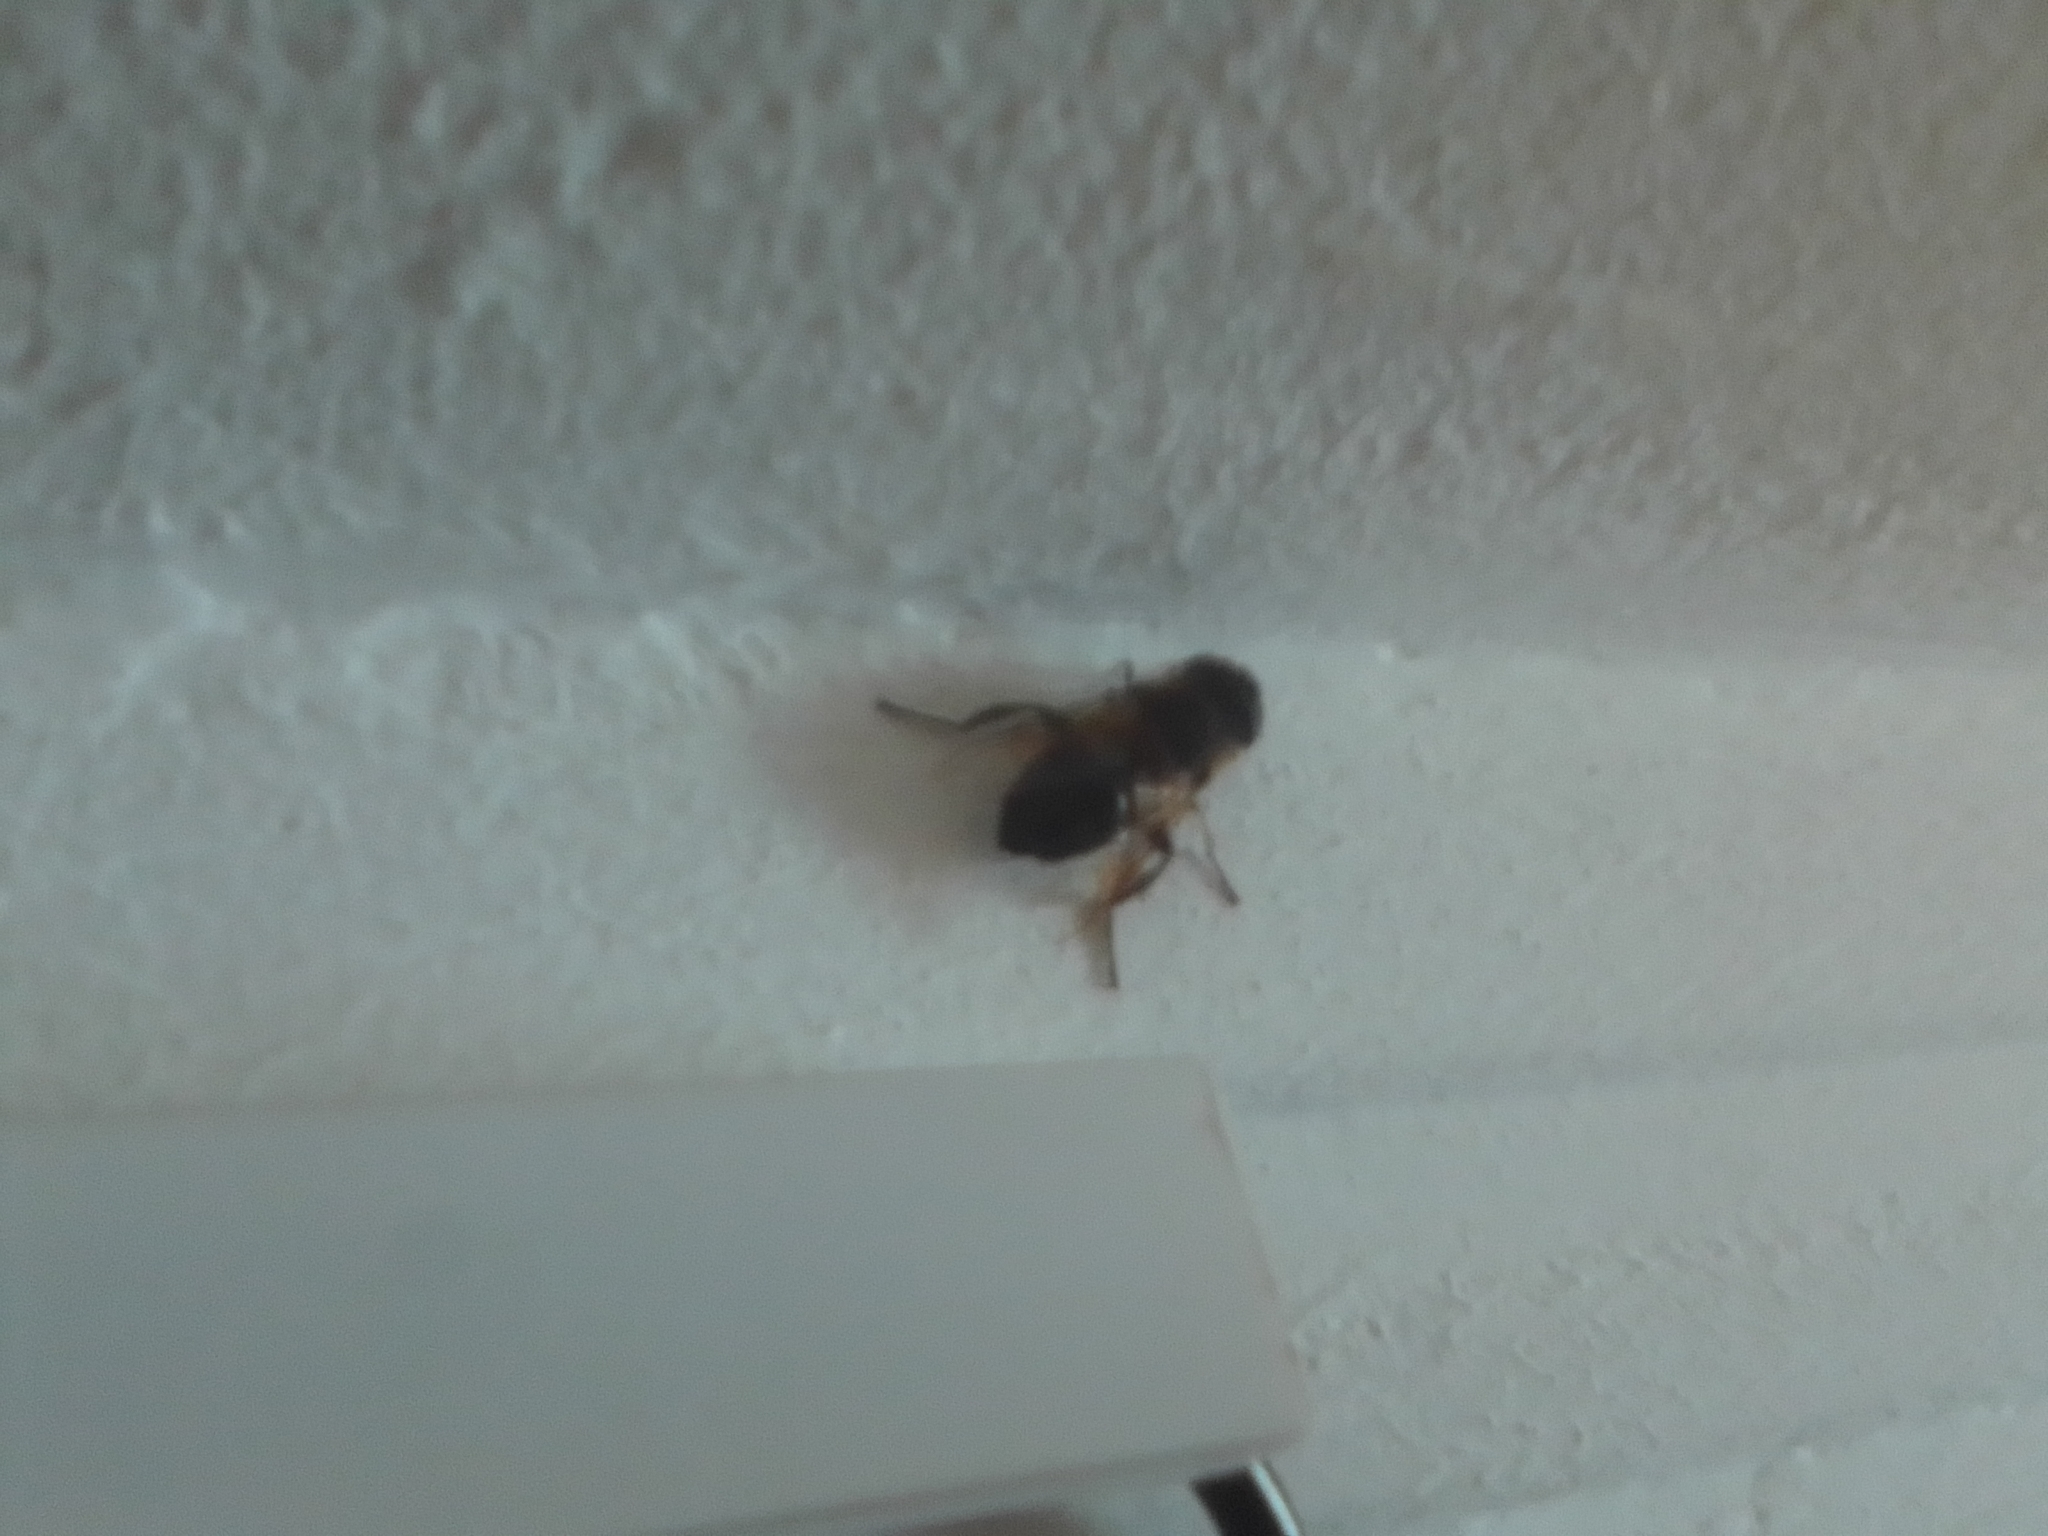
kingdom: Animalia
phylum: Arthropoda
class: Insecta
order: Diptera
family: Syrphidae
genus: Eristalis
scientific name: Eristalis tenax
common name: Drone fly
